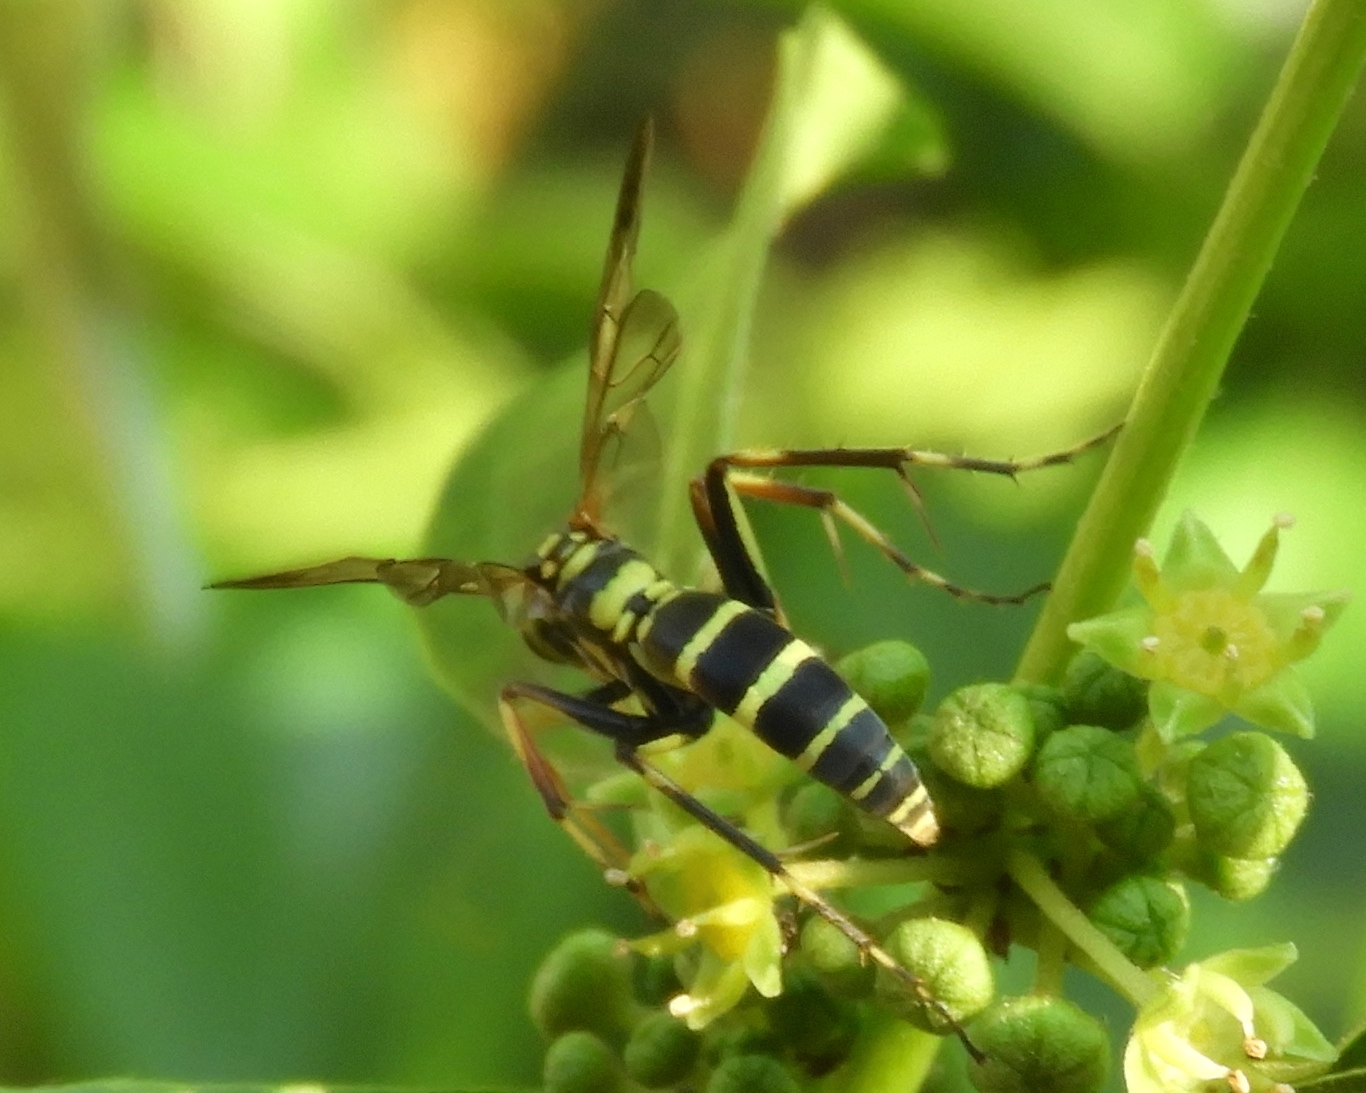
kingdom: Animalia
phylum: Arthropoda
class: Insecta
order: Hymenoptera
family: Pompilidae
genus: Poecilopompilus
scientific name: Poecilopompilus
